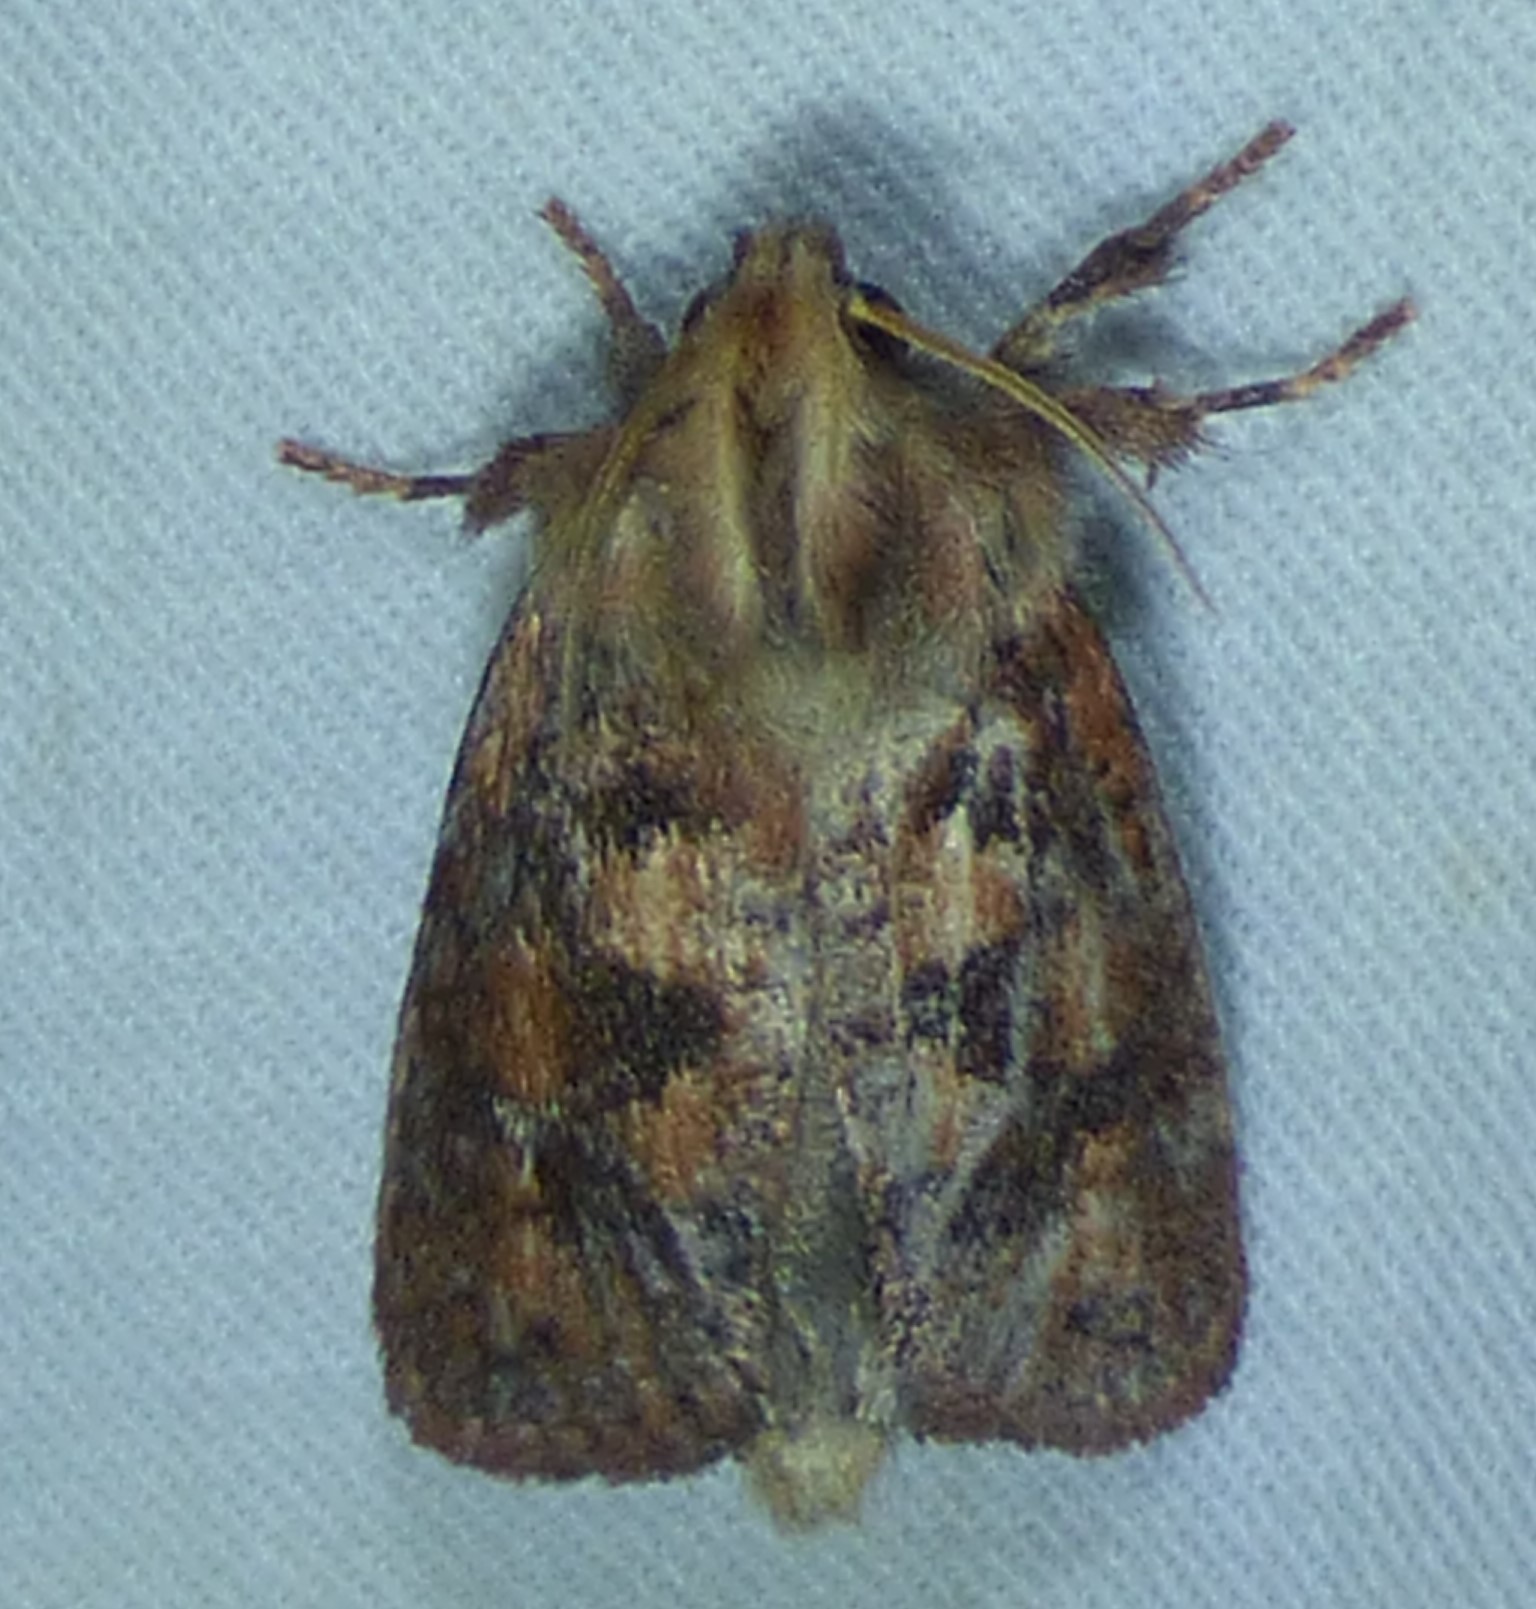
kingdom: Animalia
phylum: Arthropoda
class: Insecta
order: Lepidoptera
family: Tineidae
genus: Acrolophus
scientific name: Acrolophus plumifrontella
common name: Eastern grass tubeworm moth
